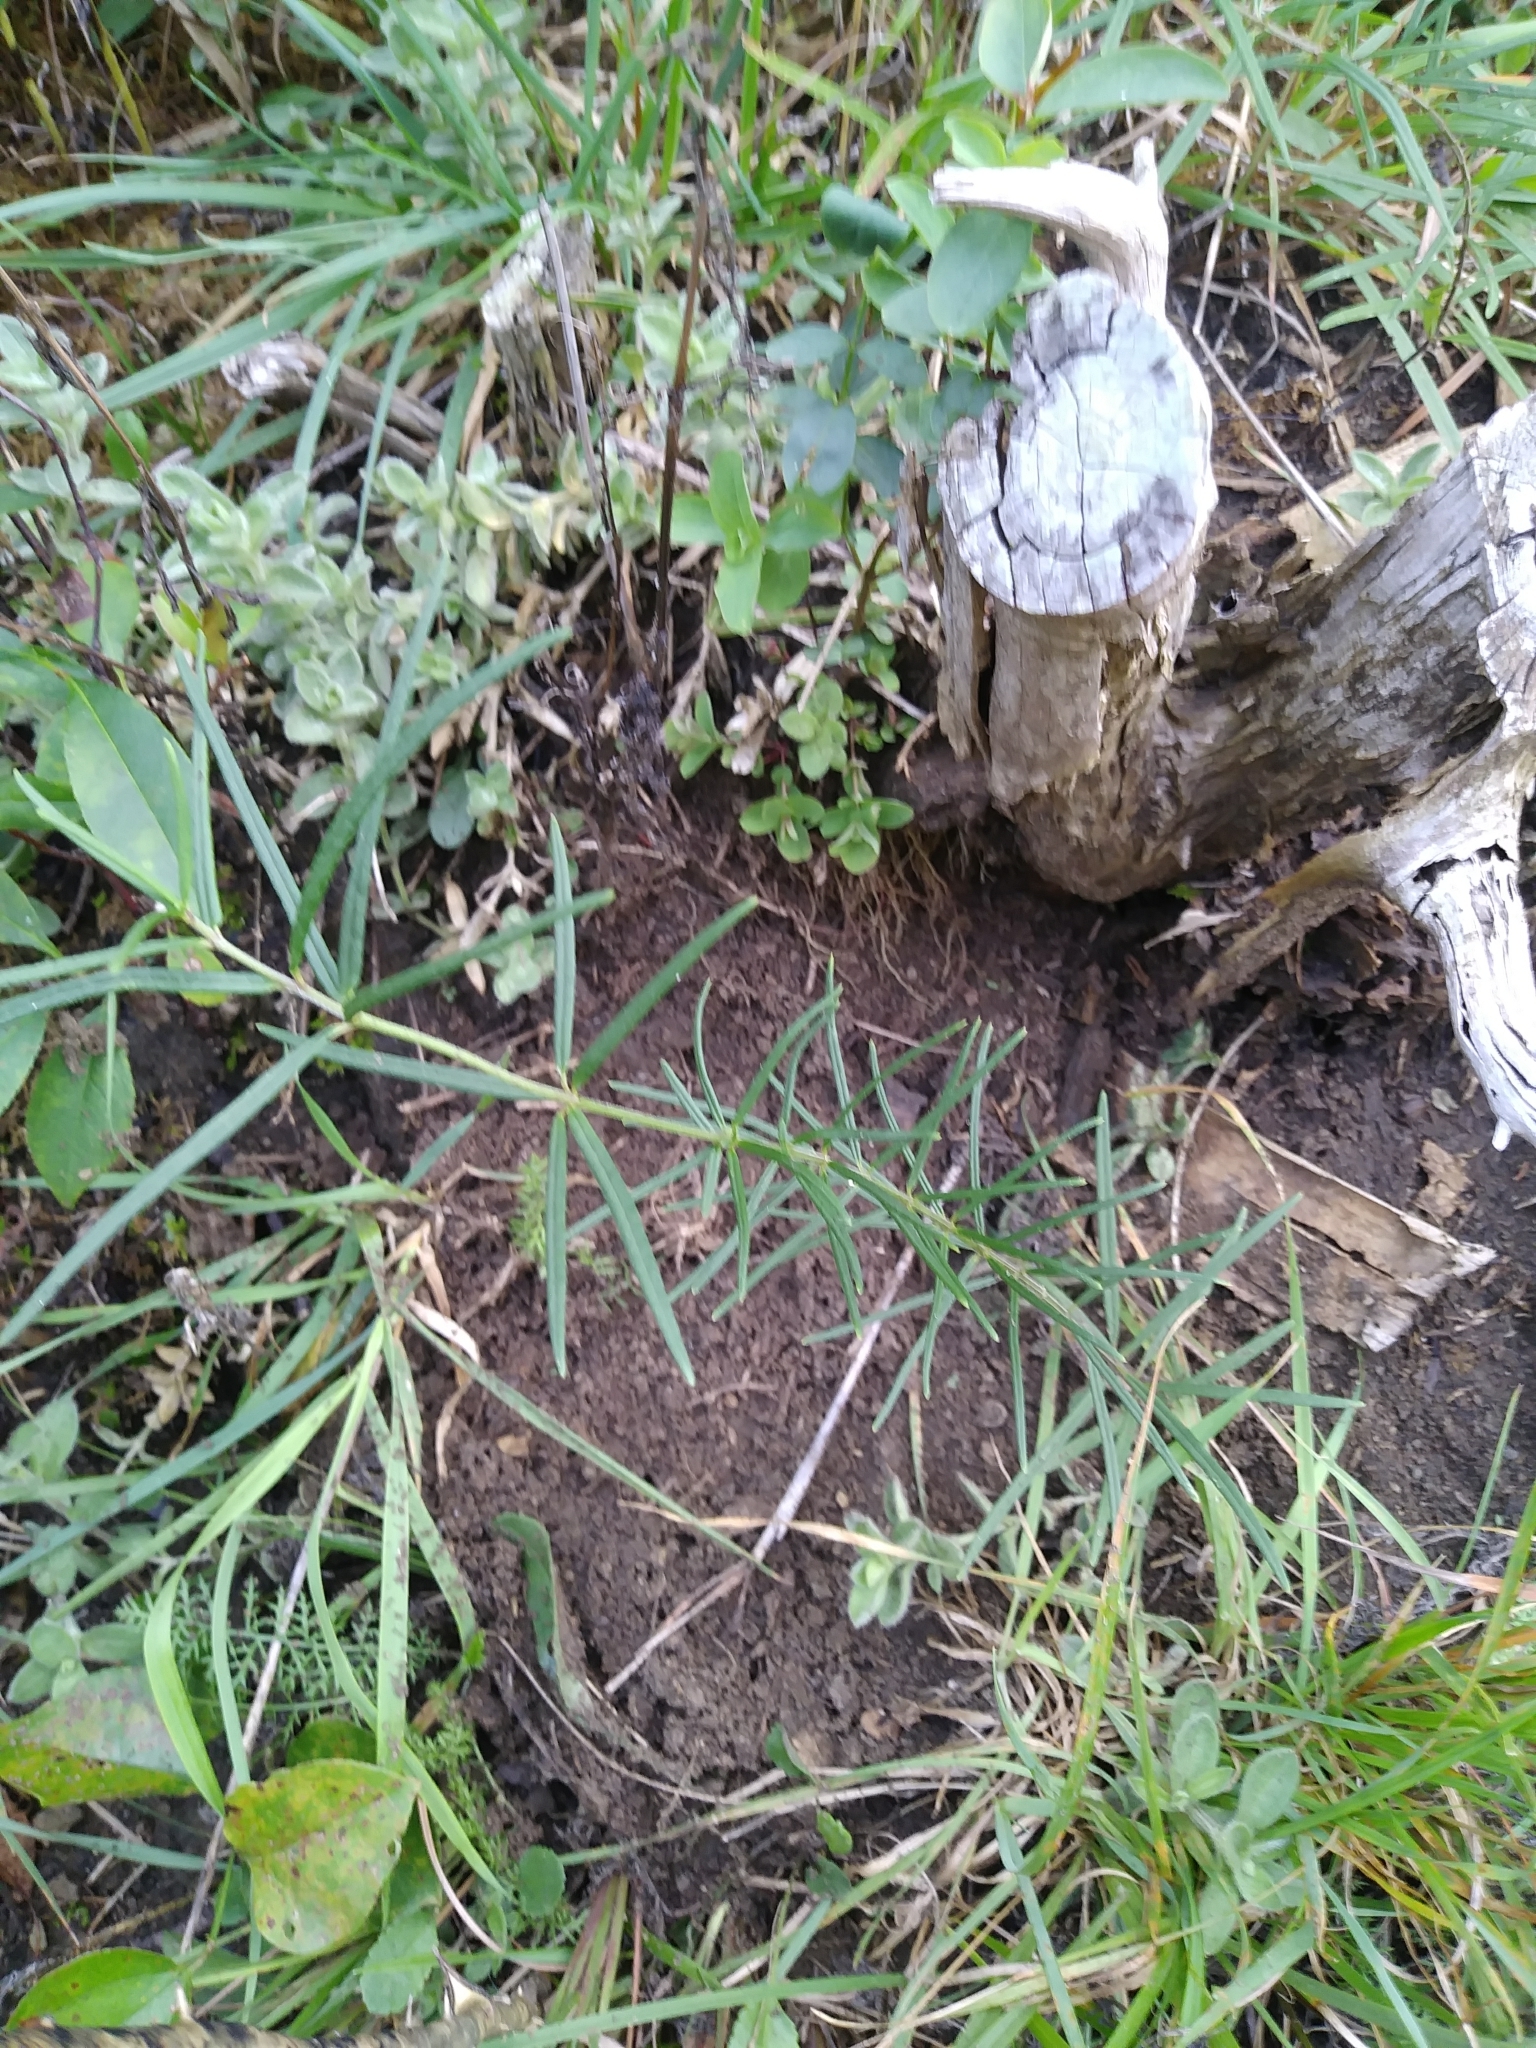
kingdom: Plantae
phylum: Tracheophyta
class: Magnoliopsida
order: Gentianales
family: Apocynaceae
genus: Asclepias
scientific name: Asclepias verticillata
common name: Eastern whorled milkweed
